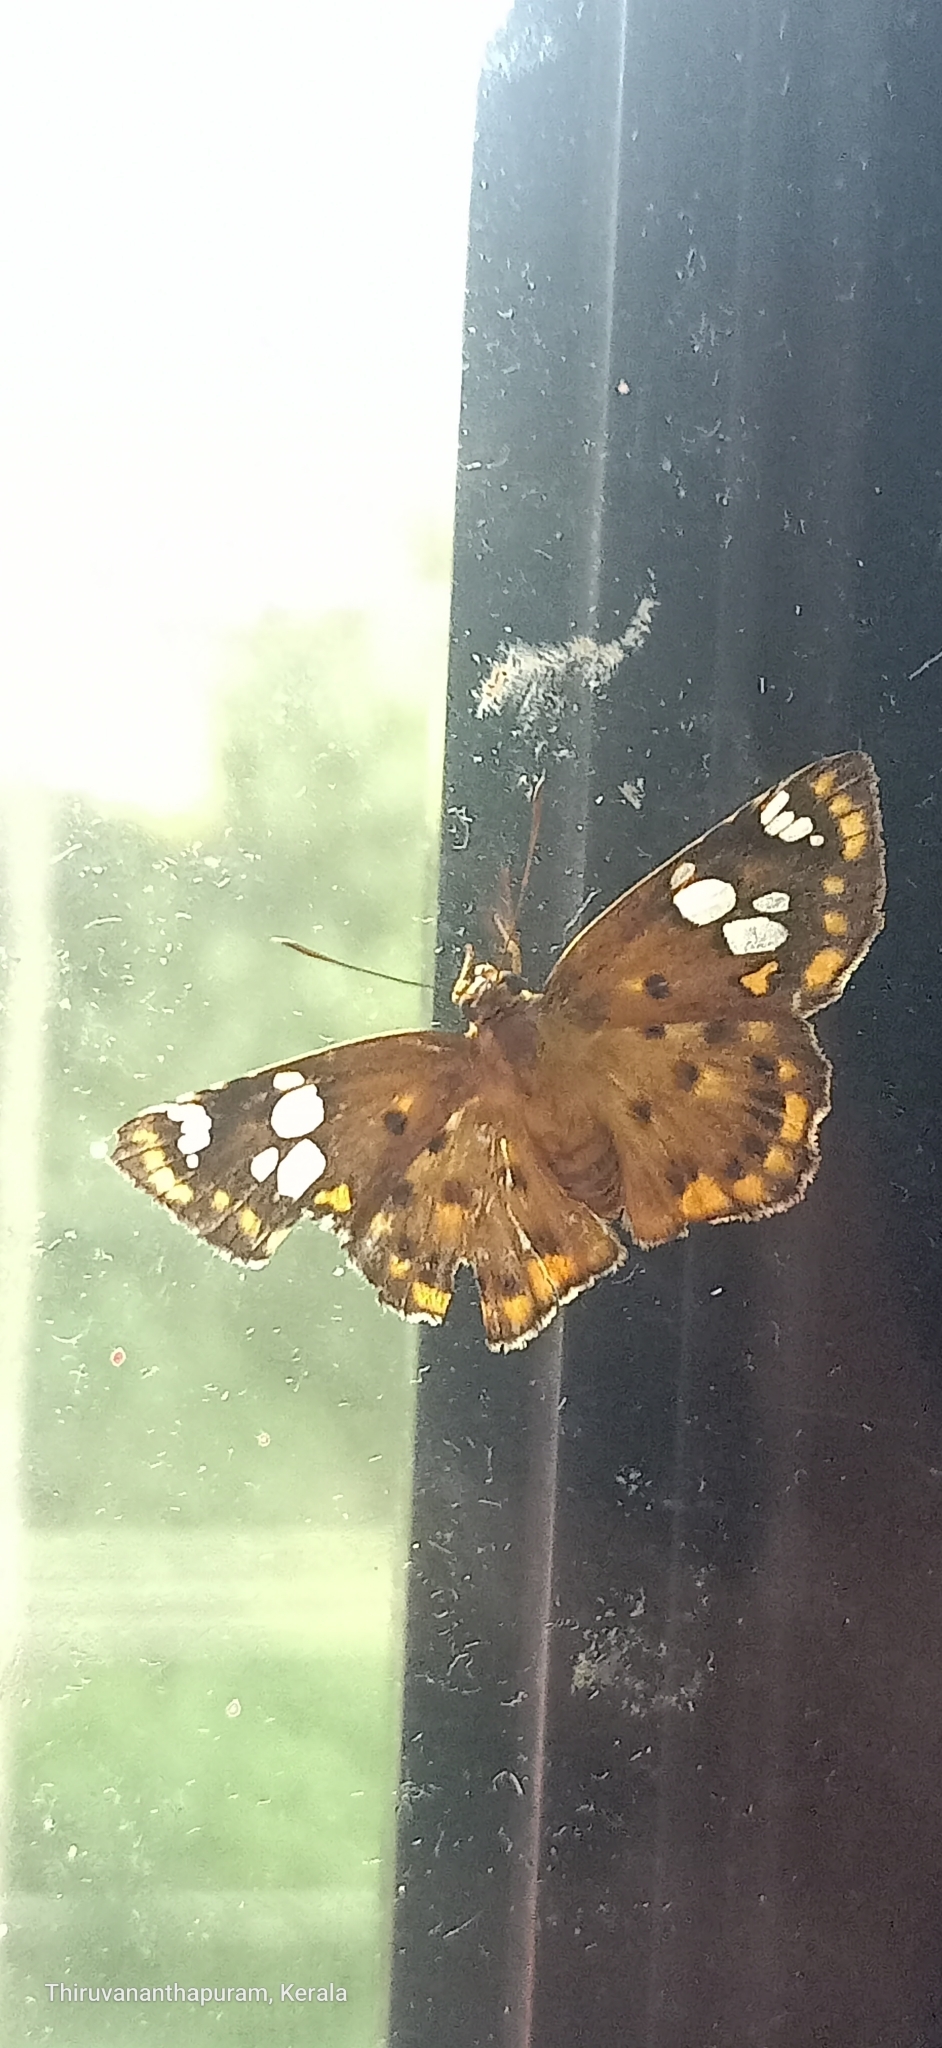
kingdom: Animalia
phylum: Arthropoda
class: Insecta
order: Lepidoptera
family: Hesperiidae
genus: Coladenia
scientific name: Coladenia
